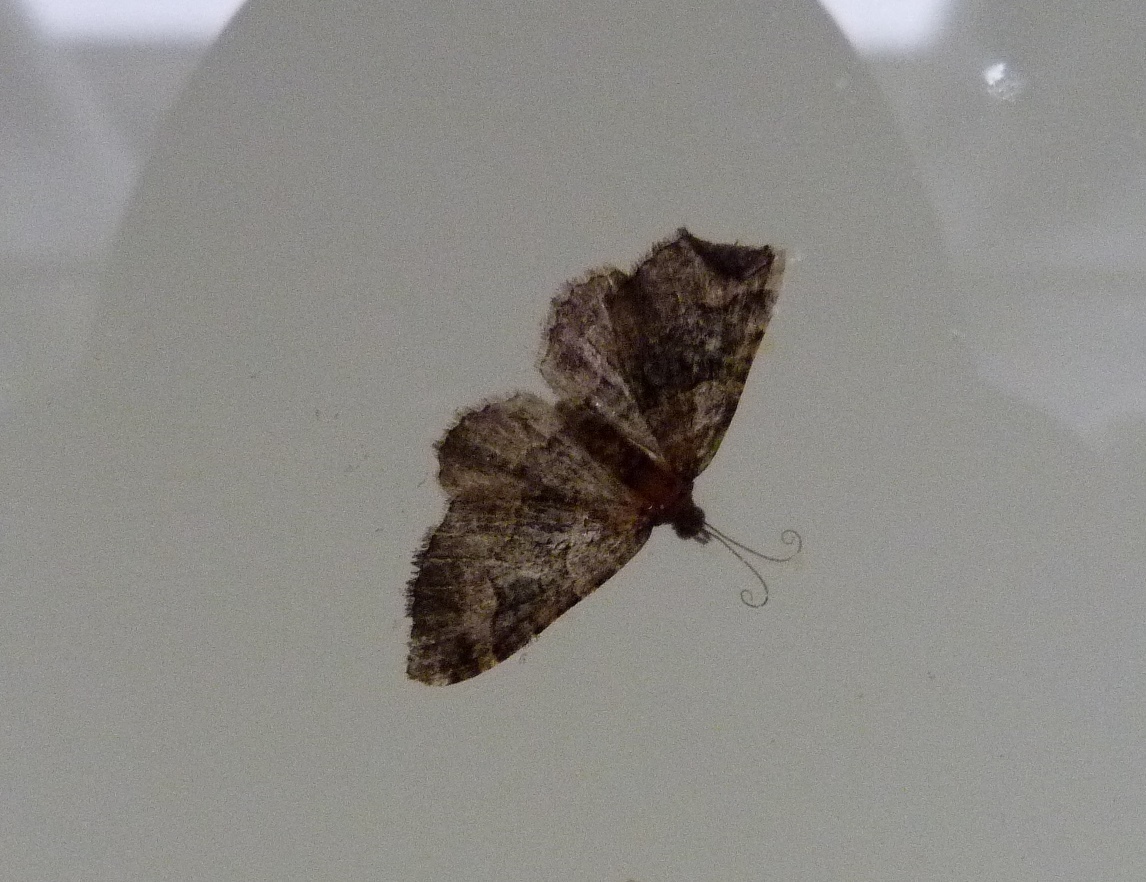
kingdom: Animalia
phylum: Arthropoda
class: Insecta
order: Lepidoptera
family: Geometridae
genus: Epyaxa
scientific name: Epyaxa lucidata
